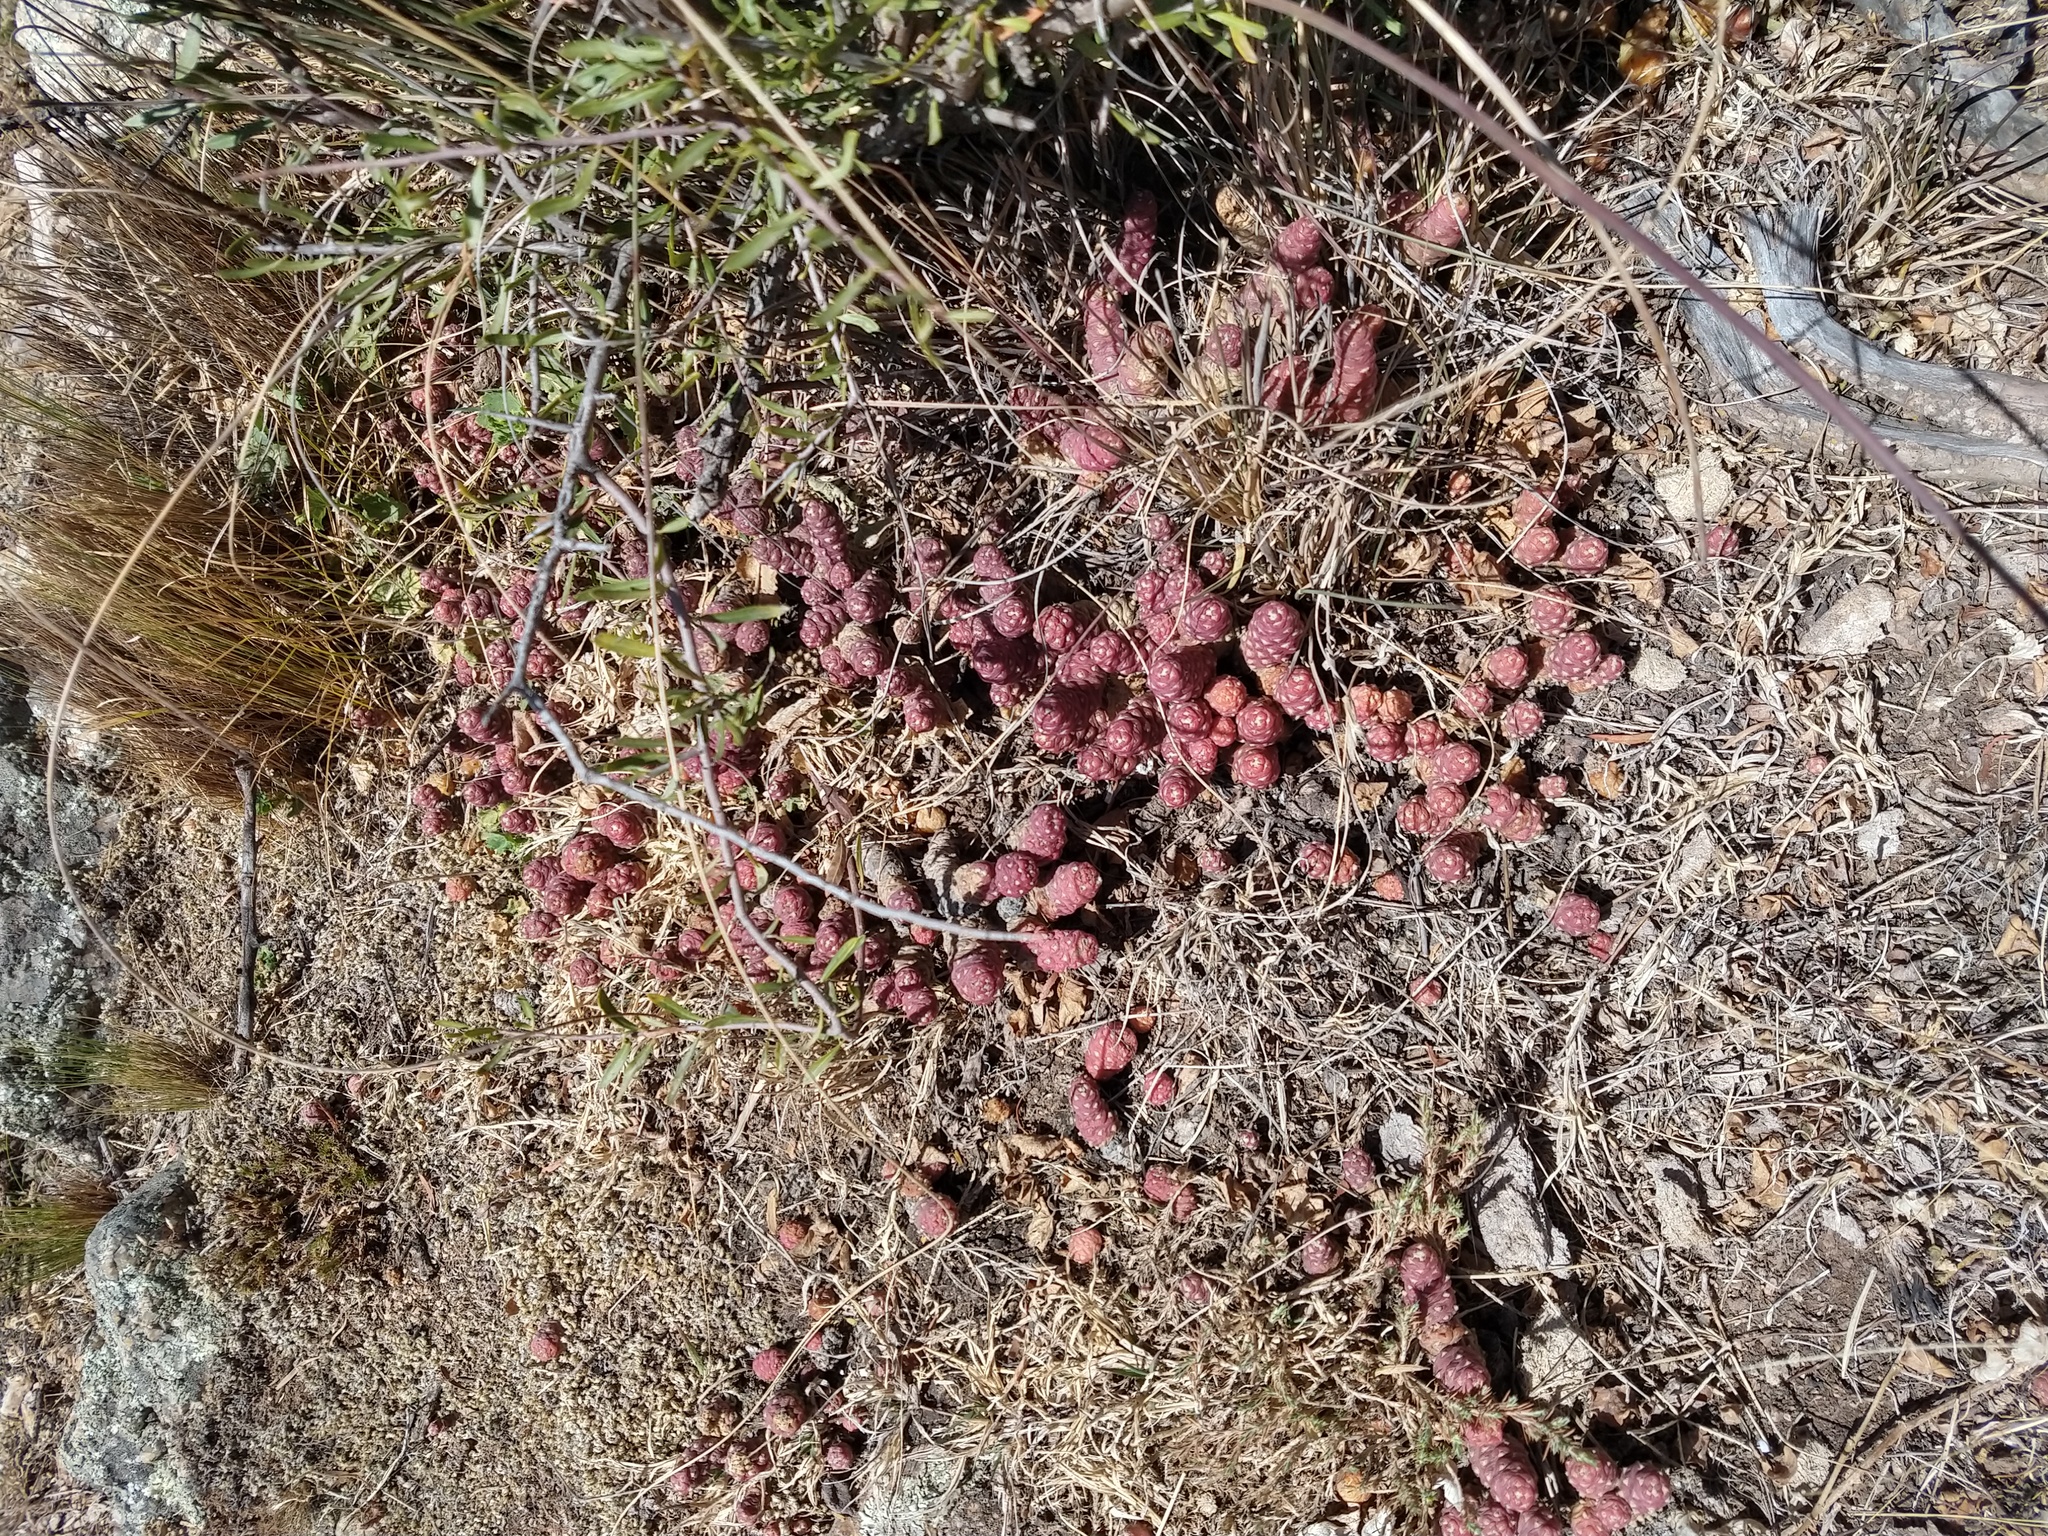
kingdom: Plantae
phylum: Tracheophyta
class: Magnoliopsida
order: Caryophyllales
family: Cactaceae
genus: Tephrocactus
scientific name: Tephrocactus verschaffeltii
